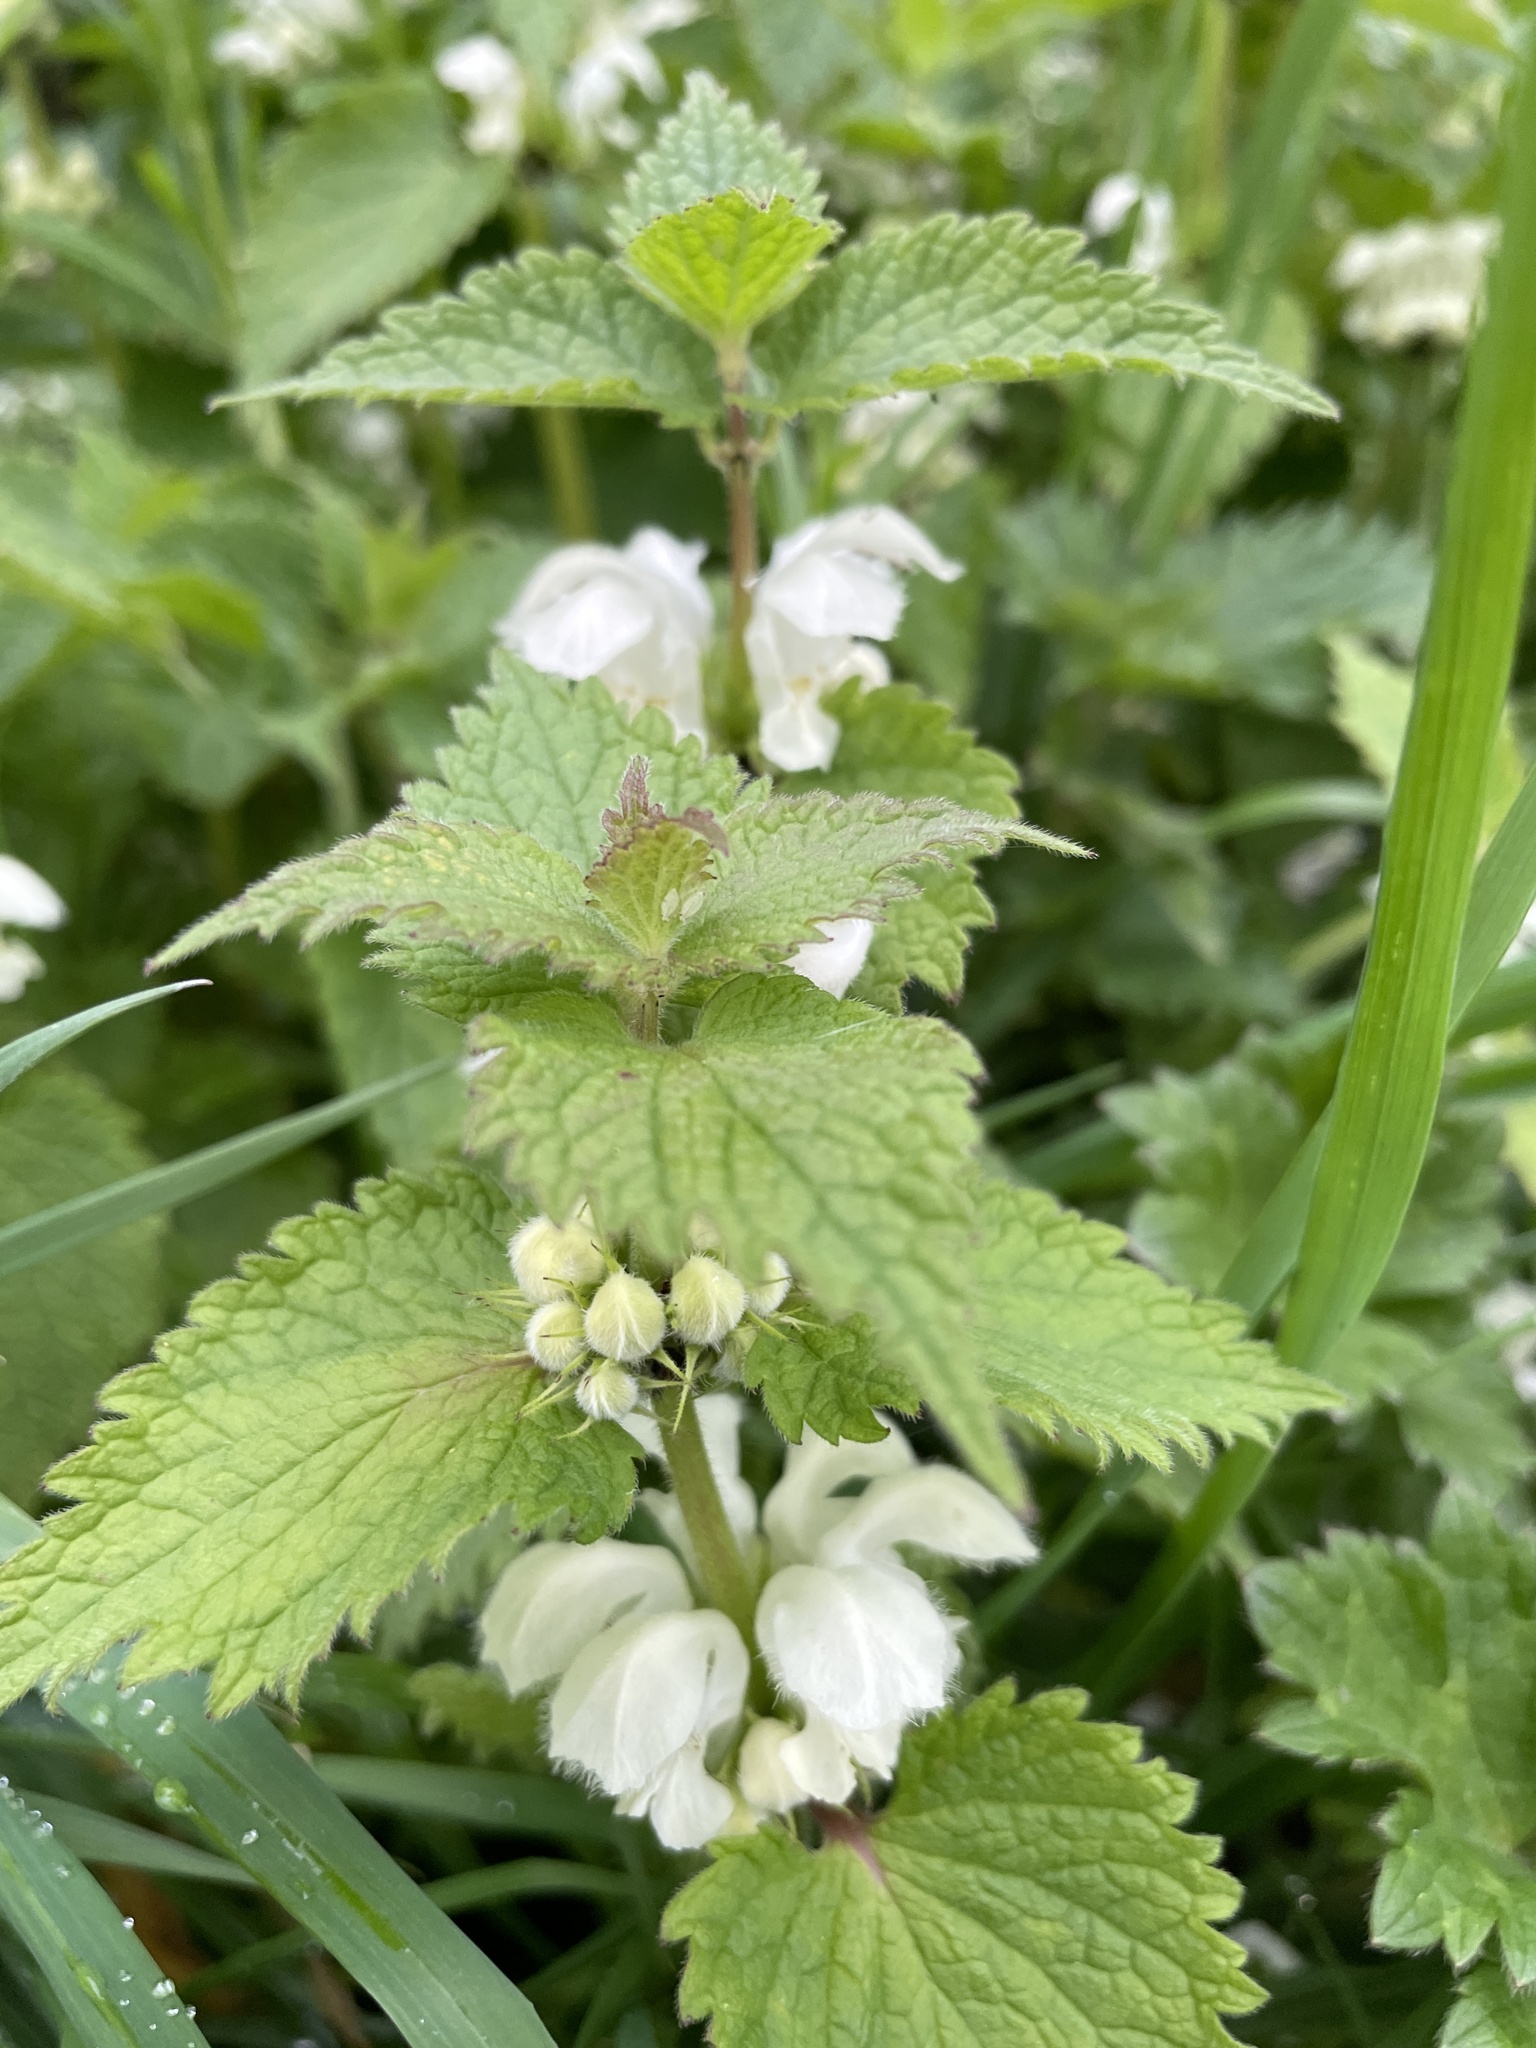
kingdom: Plantae
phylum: Tracheophyta
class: Magnoliopsida
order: Lamiales
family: Lamiaceae
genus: Lamium
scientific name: Lamium album
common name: White dead-nettle
